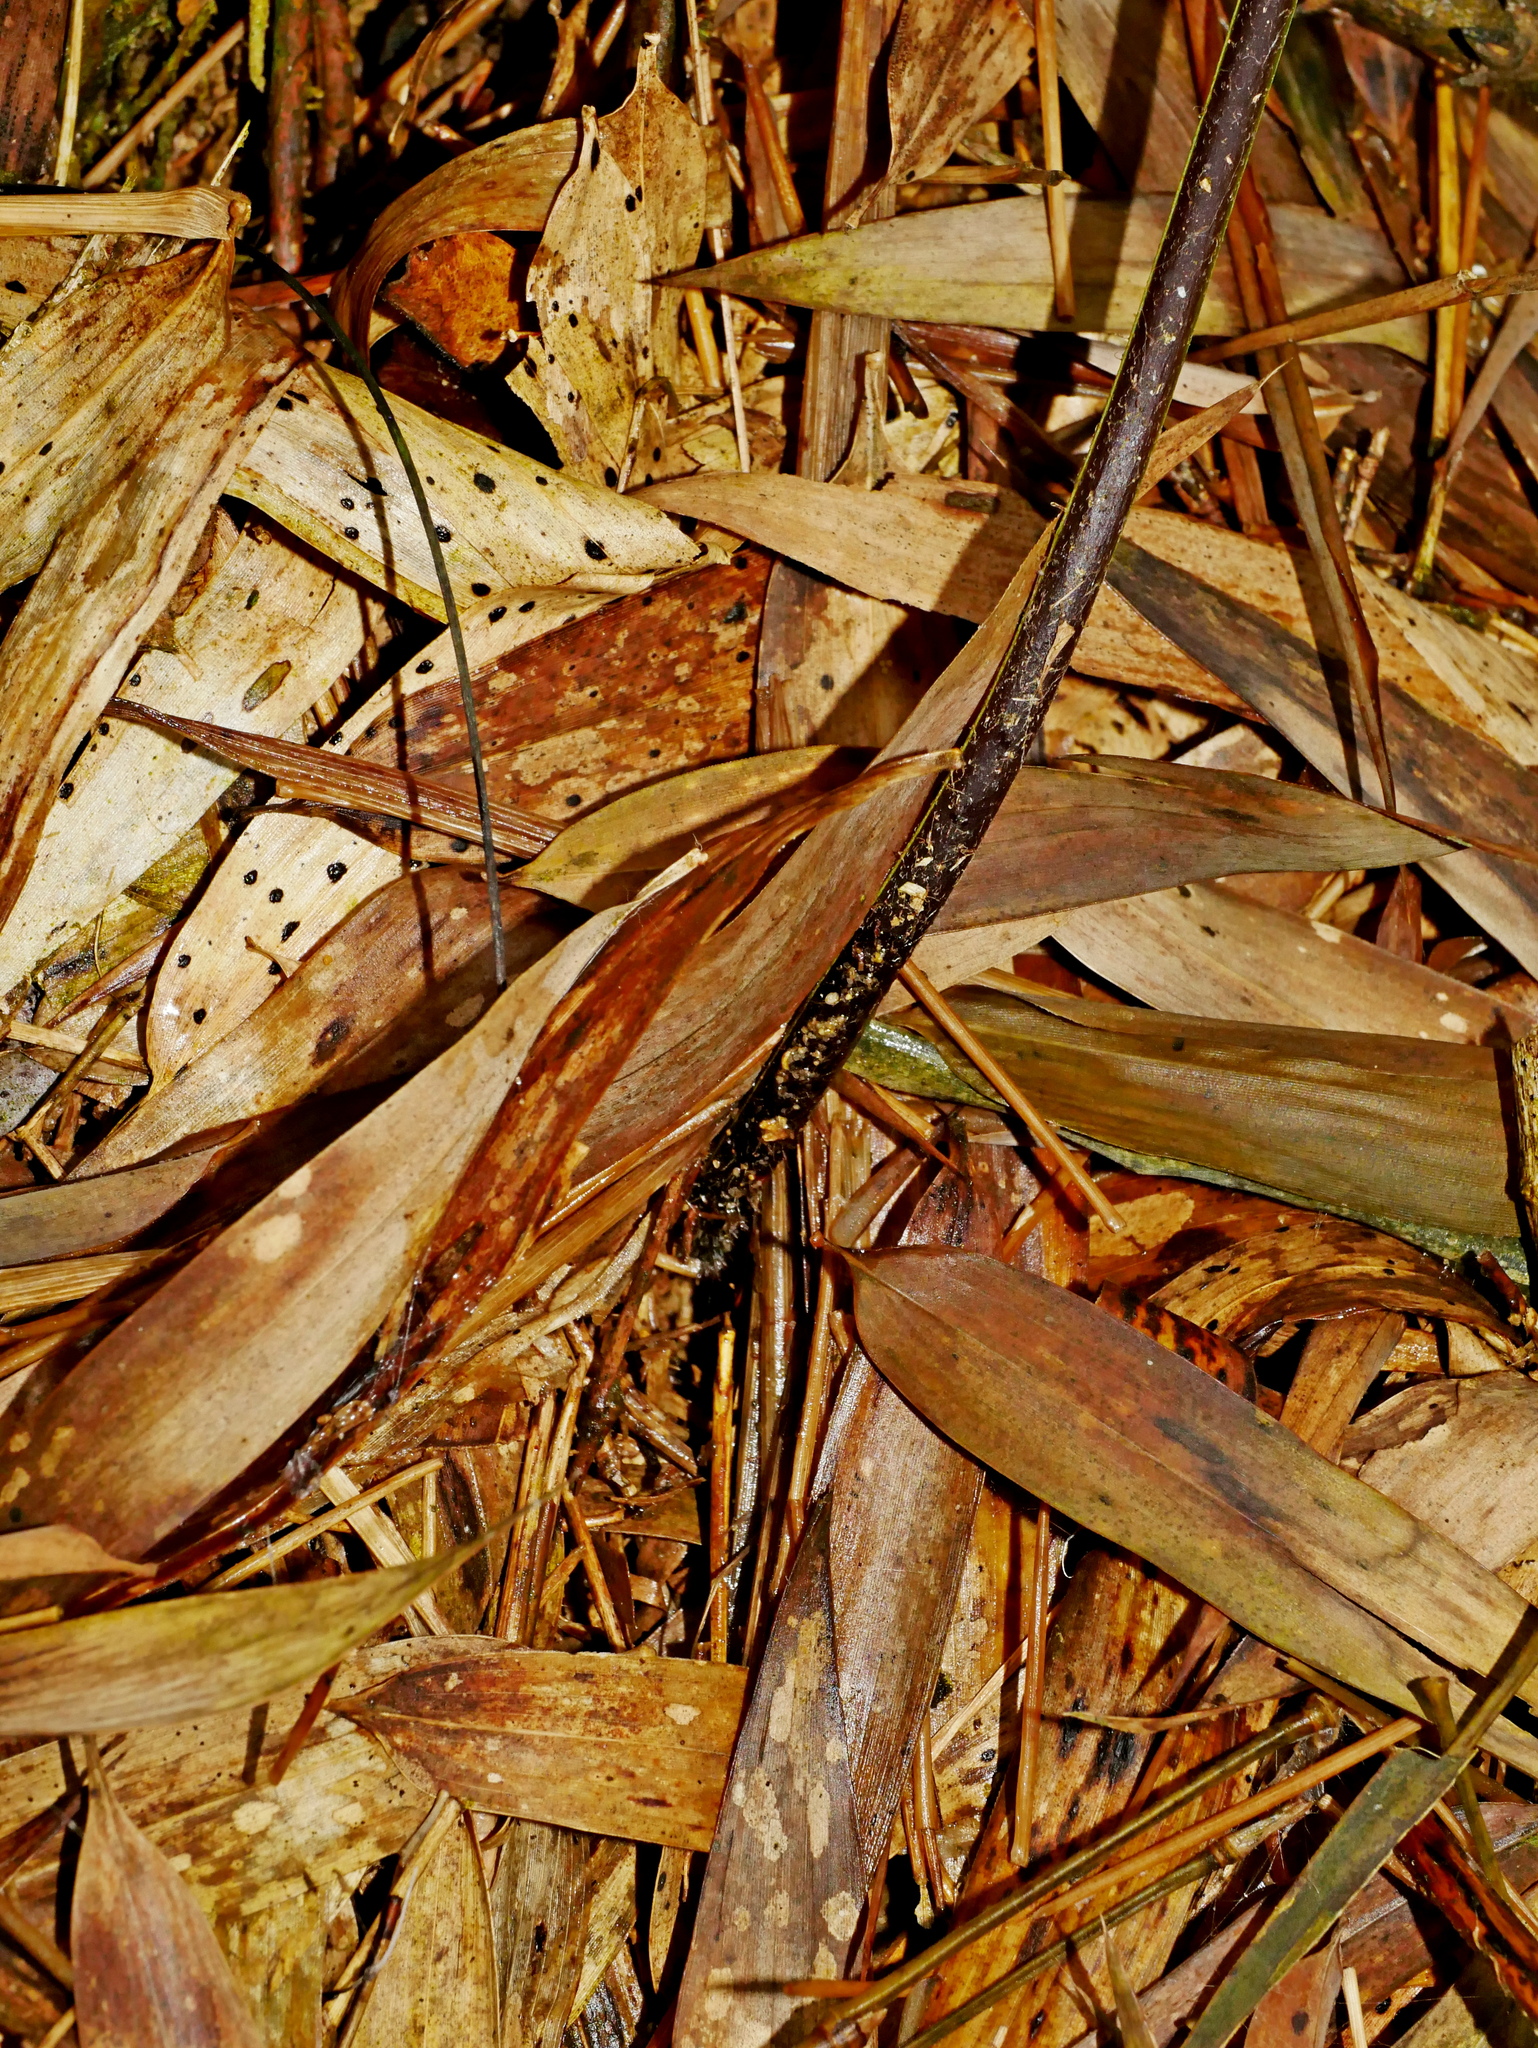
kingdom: Plantae
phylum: Tracheophyta
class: Polypodiopsida
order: Polypodiales
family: Dennstaedtiaceae
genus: Microlepia
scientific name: Microlepia calvescens
